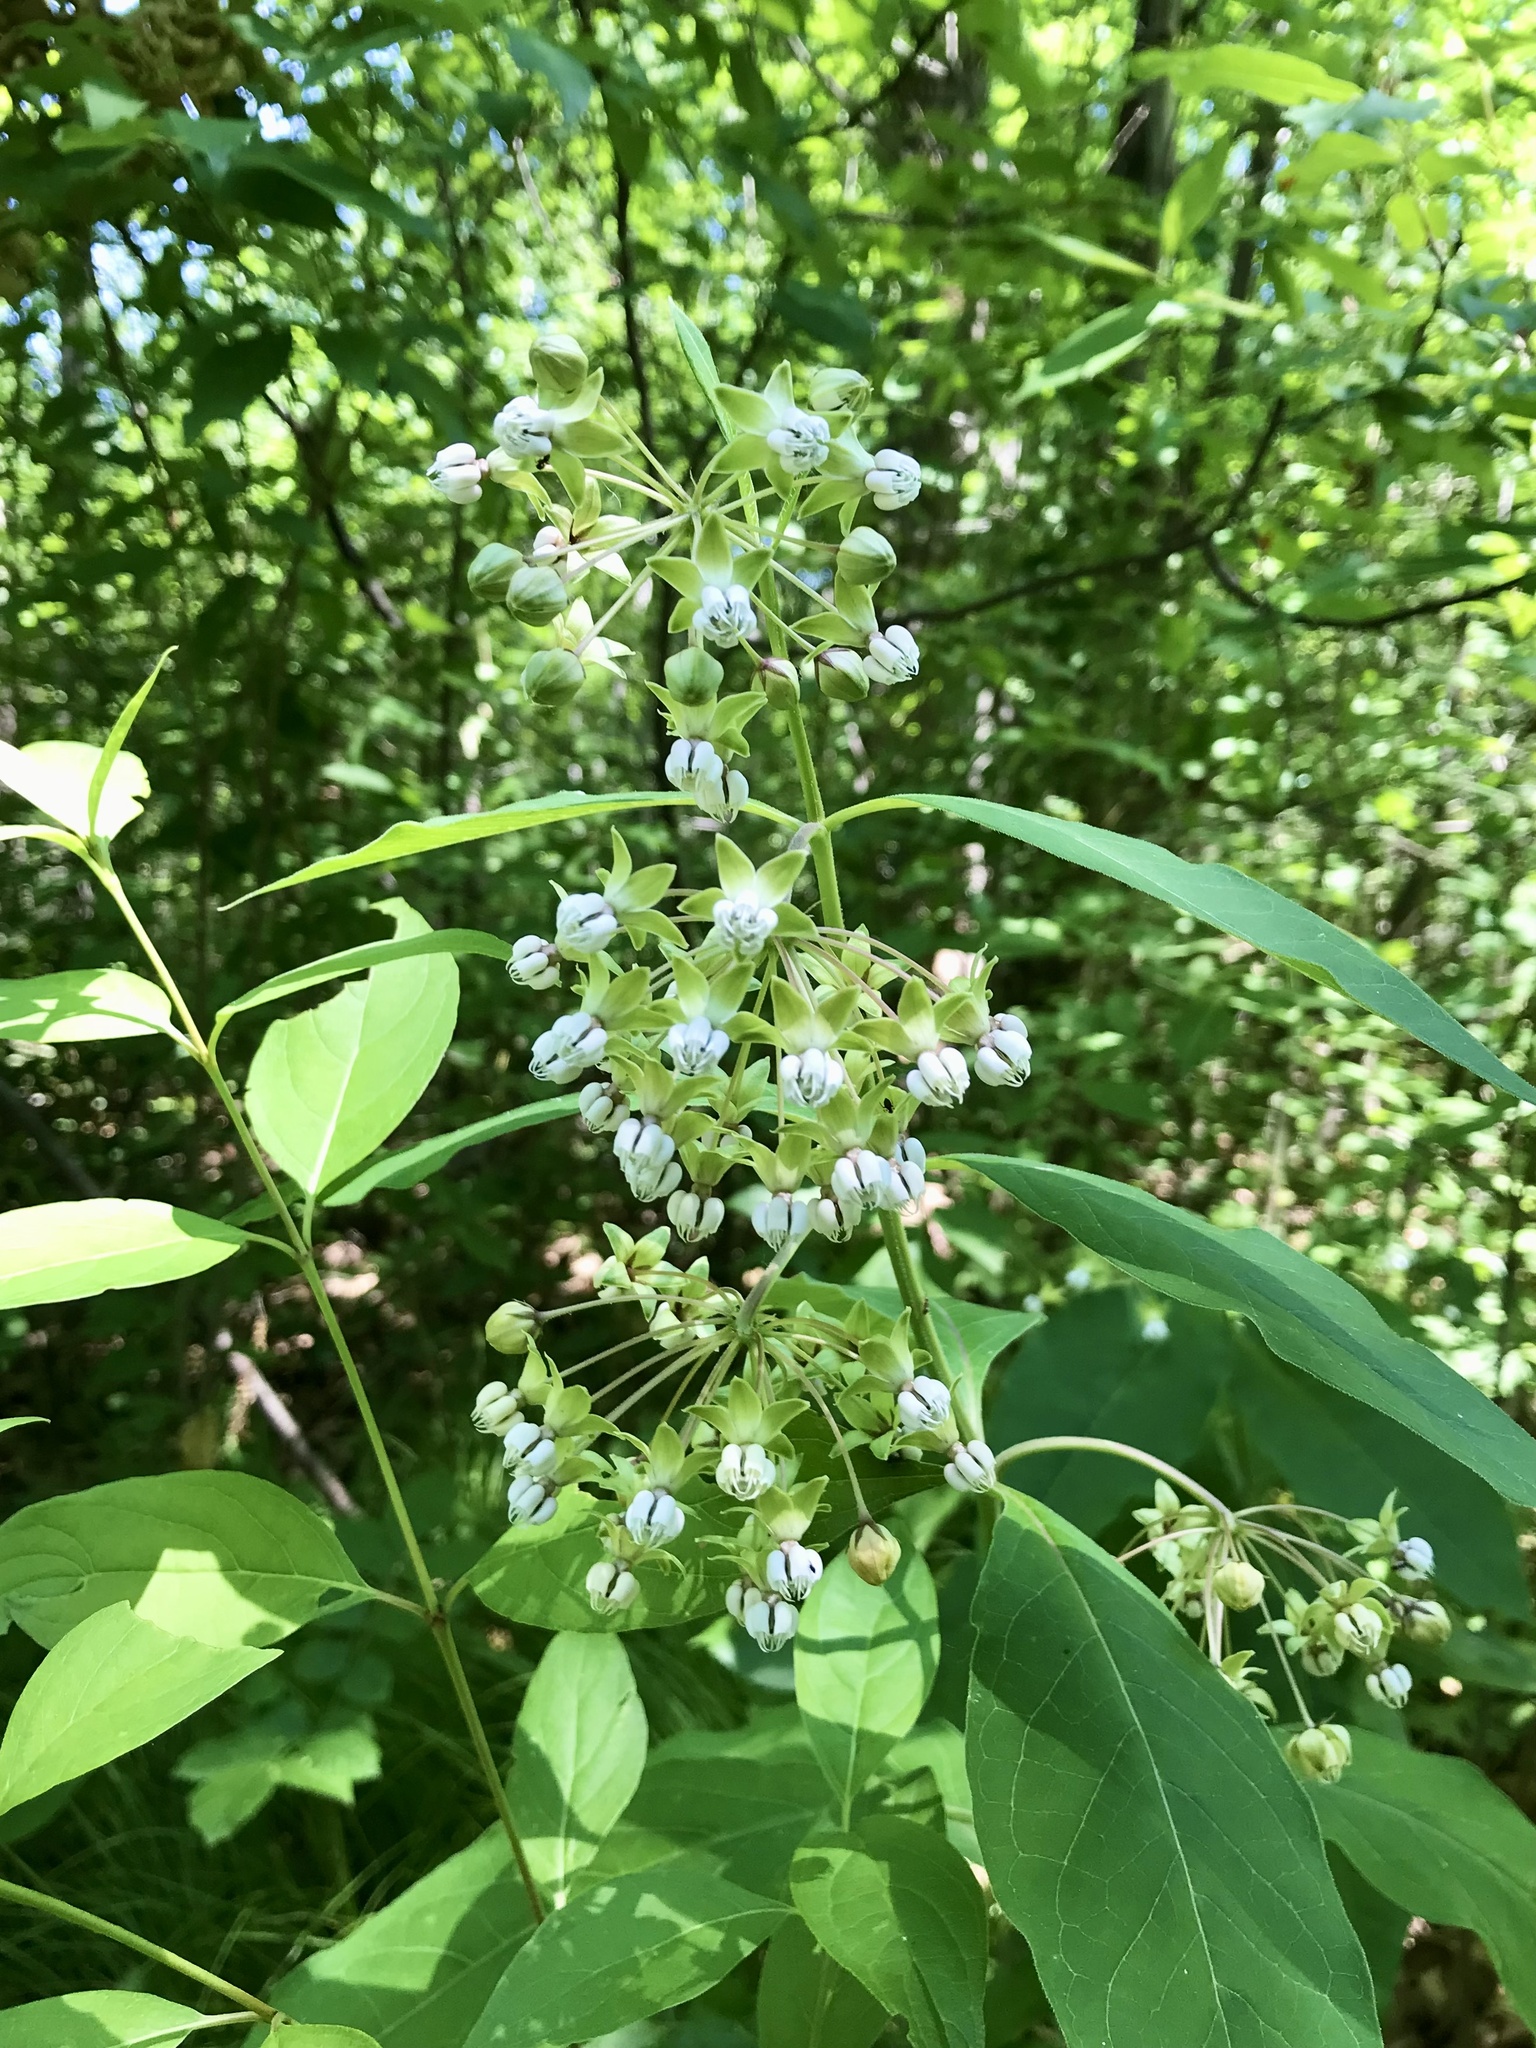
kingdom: Plantae
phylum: Tracheophyta
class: Magnoliopsida
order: Gentianales
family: Apocynaceae
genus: Asclepias
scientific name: Asclepias exaltata
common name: Poke milkweed
